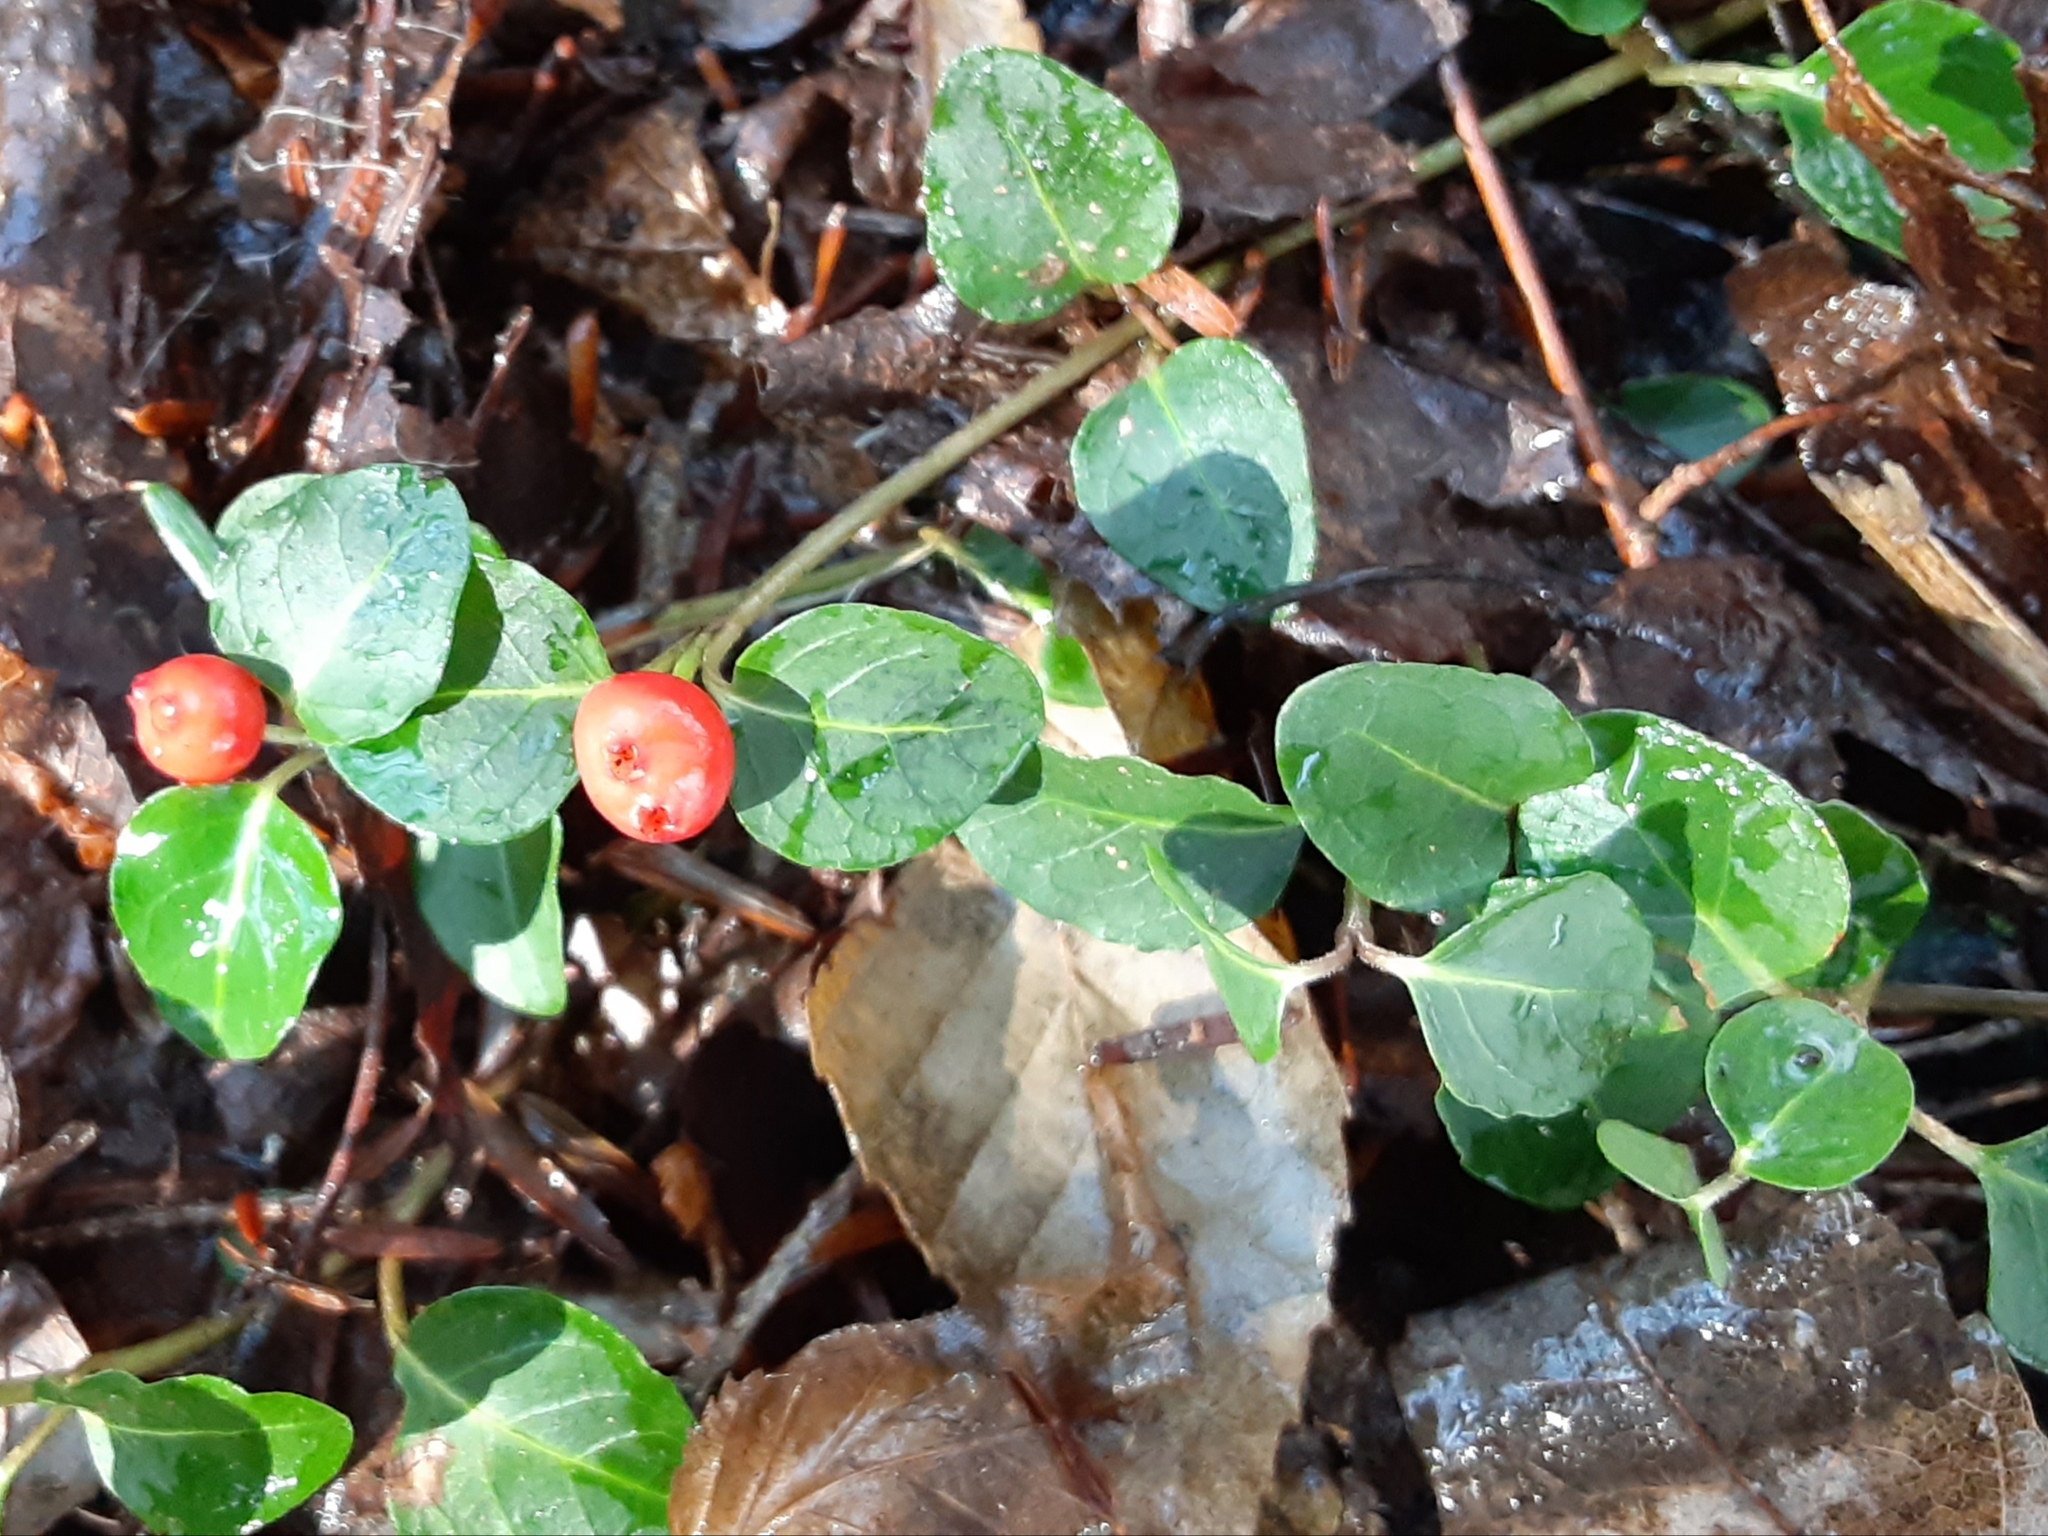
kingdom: Plantae
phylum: Tracheophyta
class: Magnoliopsida
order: Gentianales
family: Rubiaceae
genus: Mitchella
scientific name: Mitchella repens
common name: Partridge-berry
